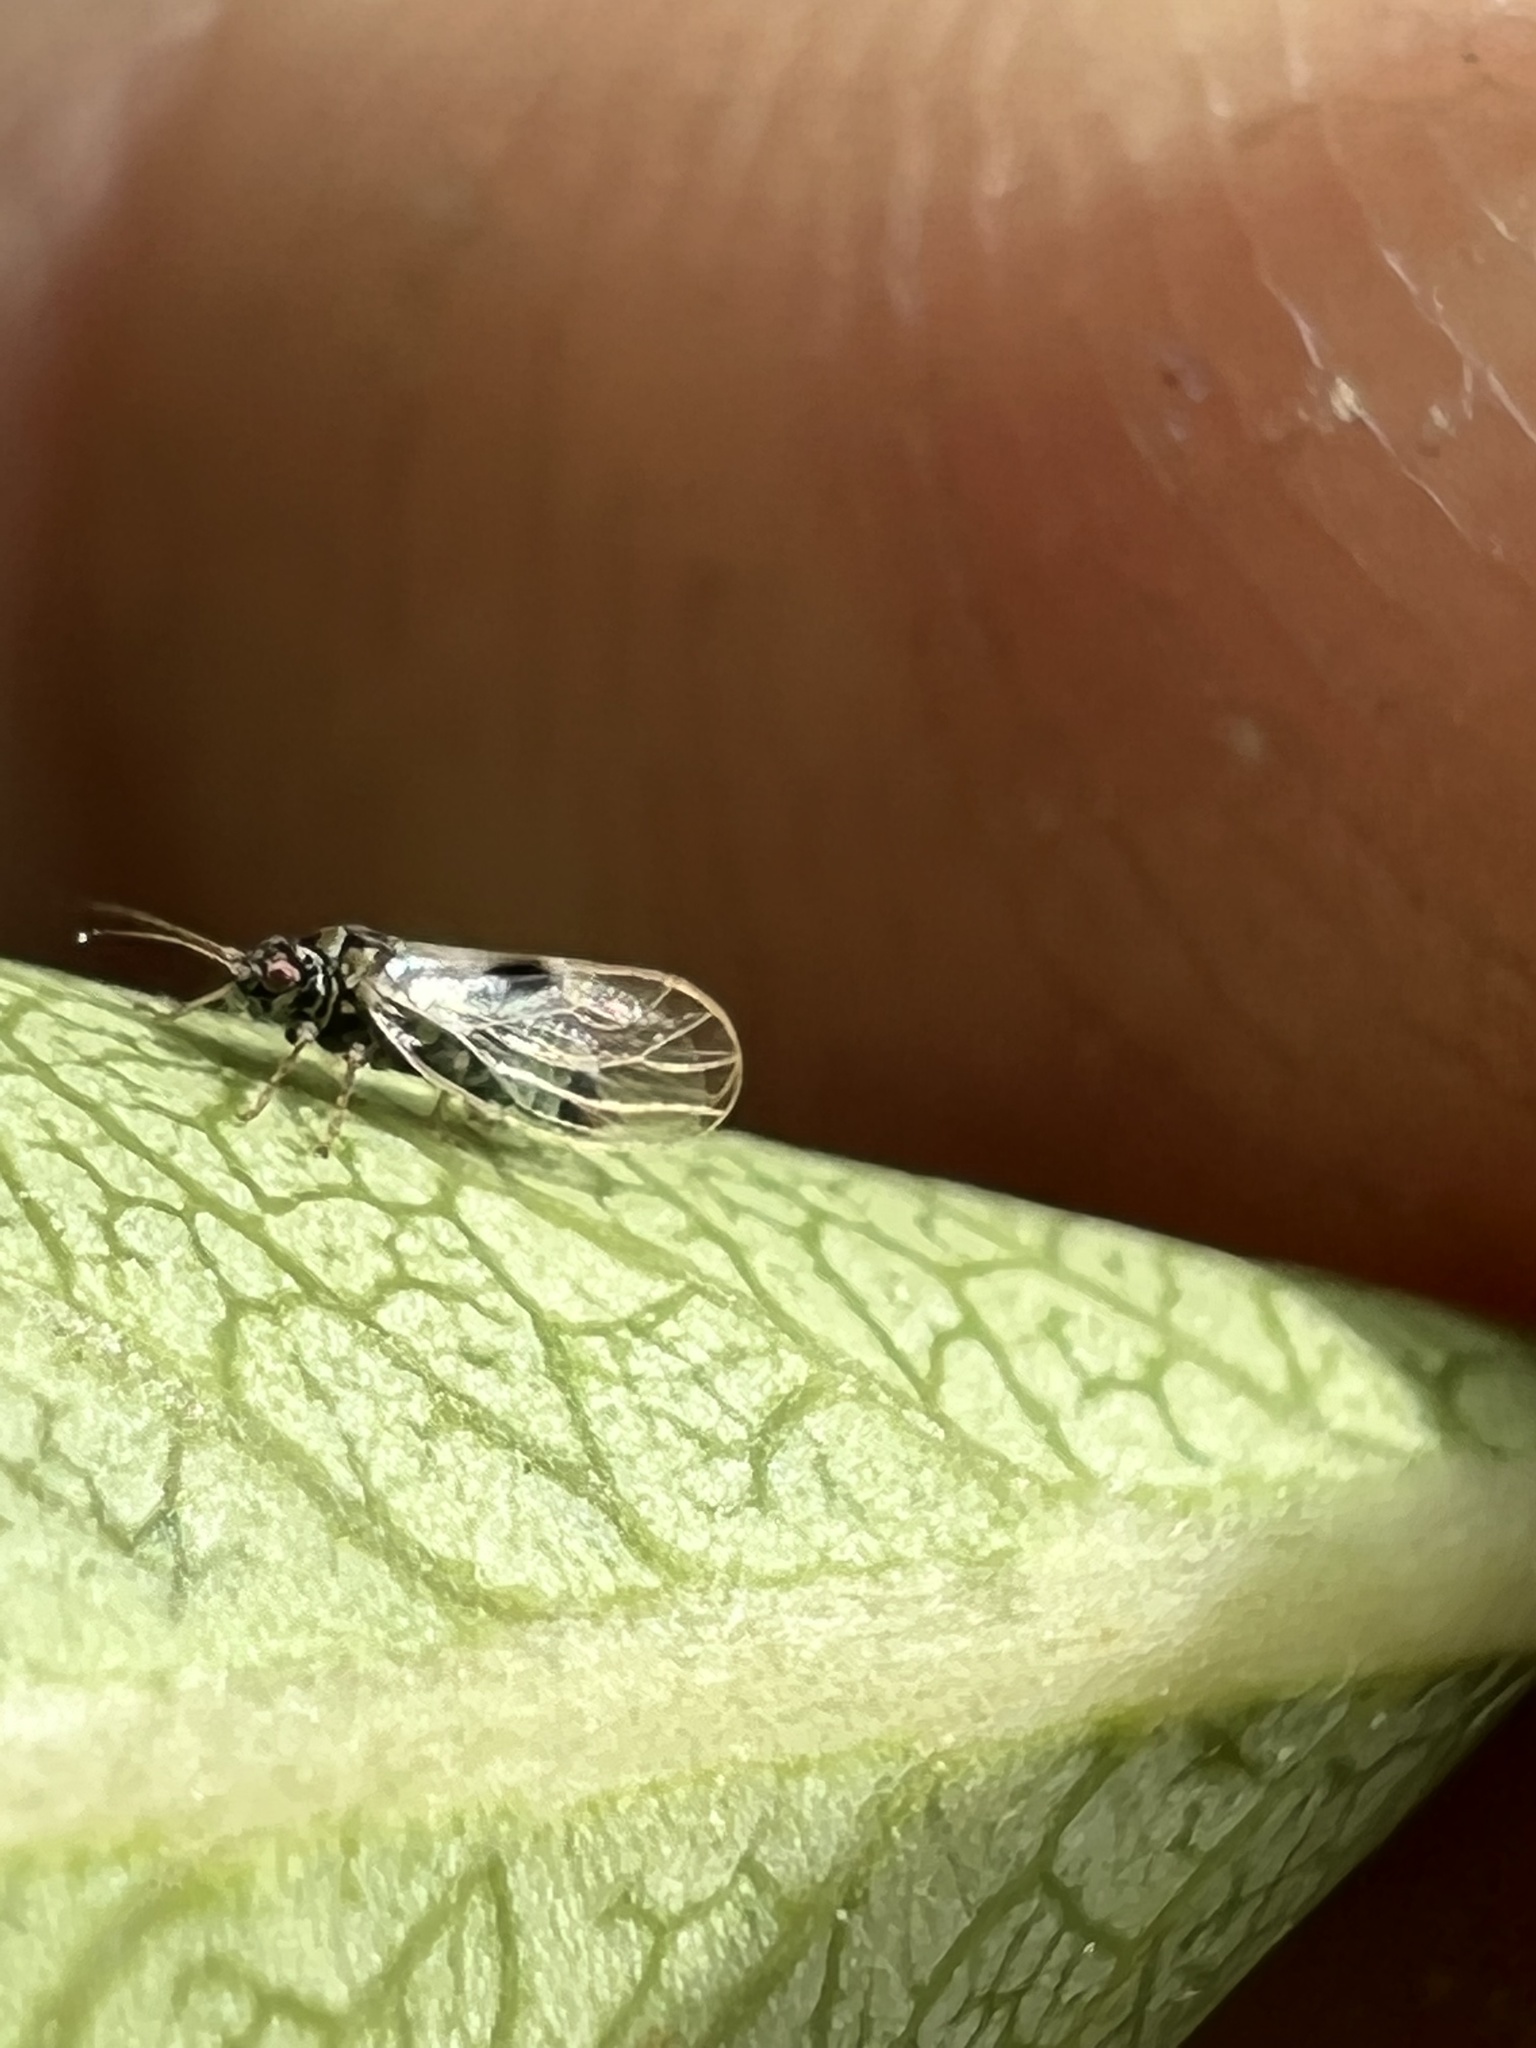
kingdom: Animalia
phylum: Arthropoda
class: Insecta
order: Hemiptera
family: Psyllidae
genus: Cacopsylla
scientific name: Cacopsylla pyricola
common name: Pear psylla
